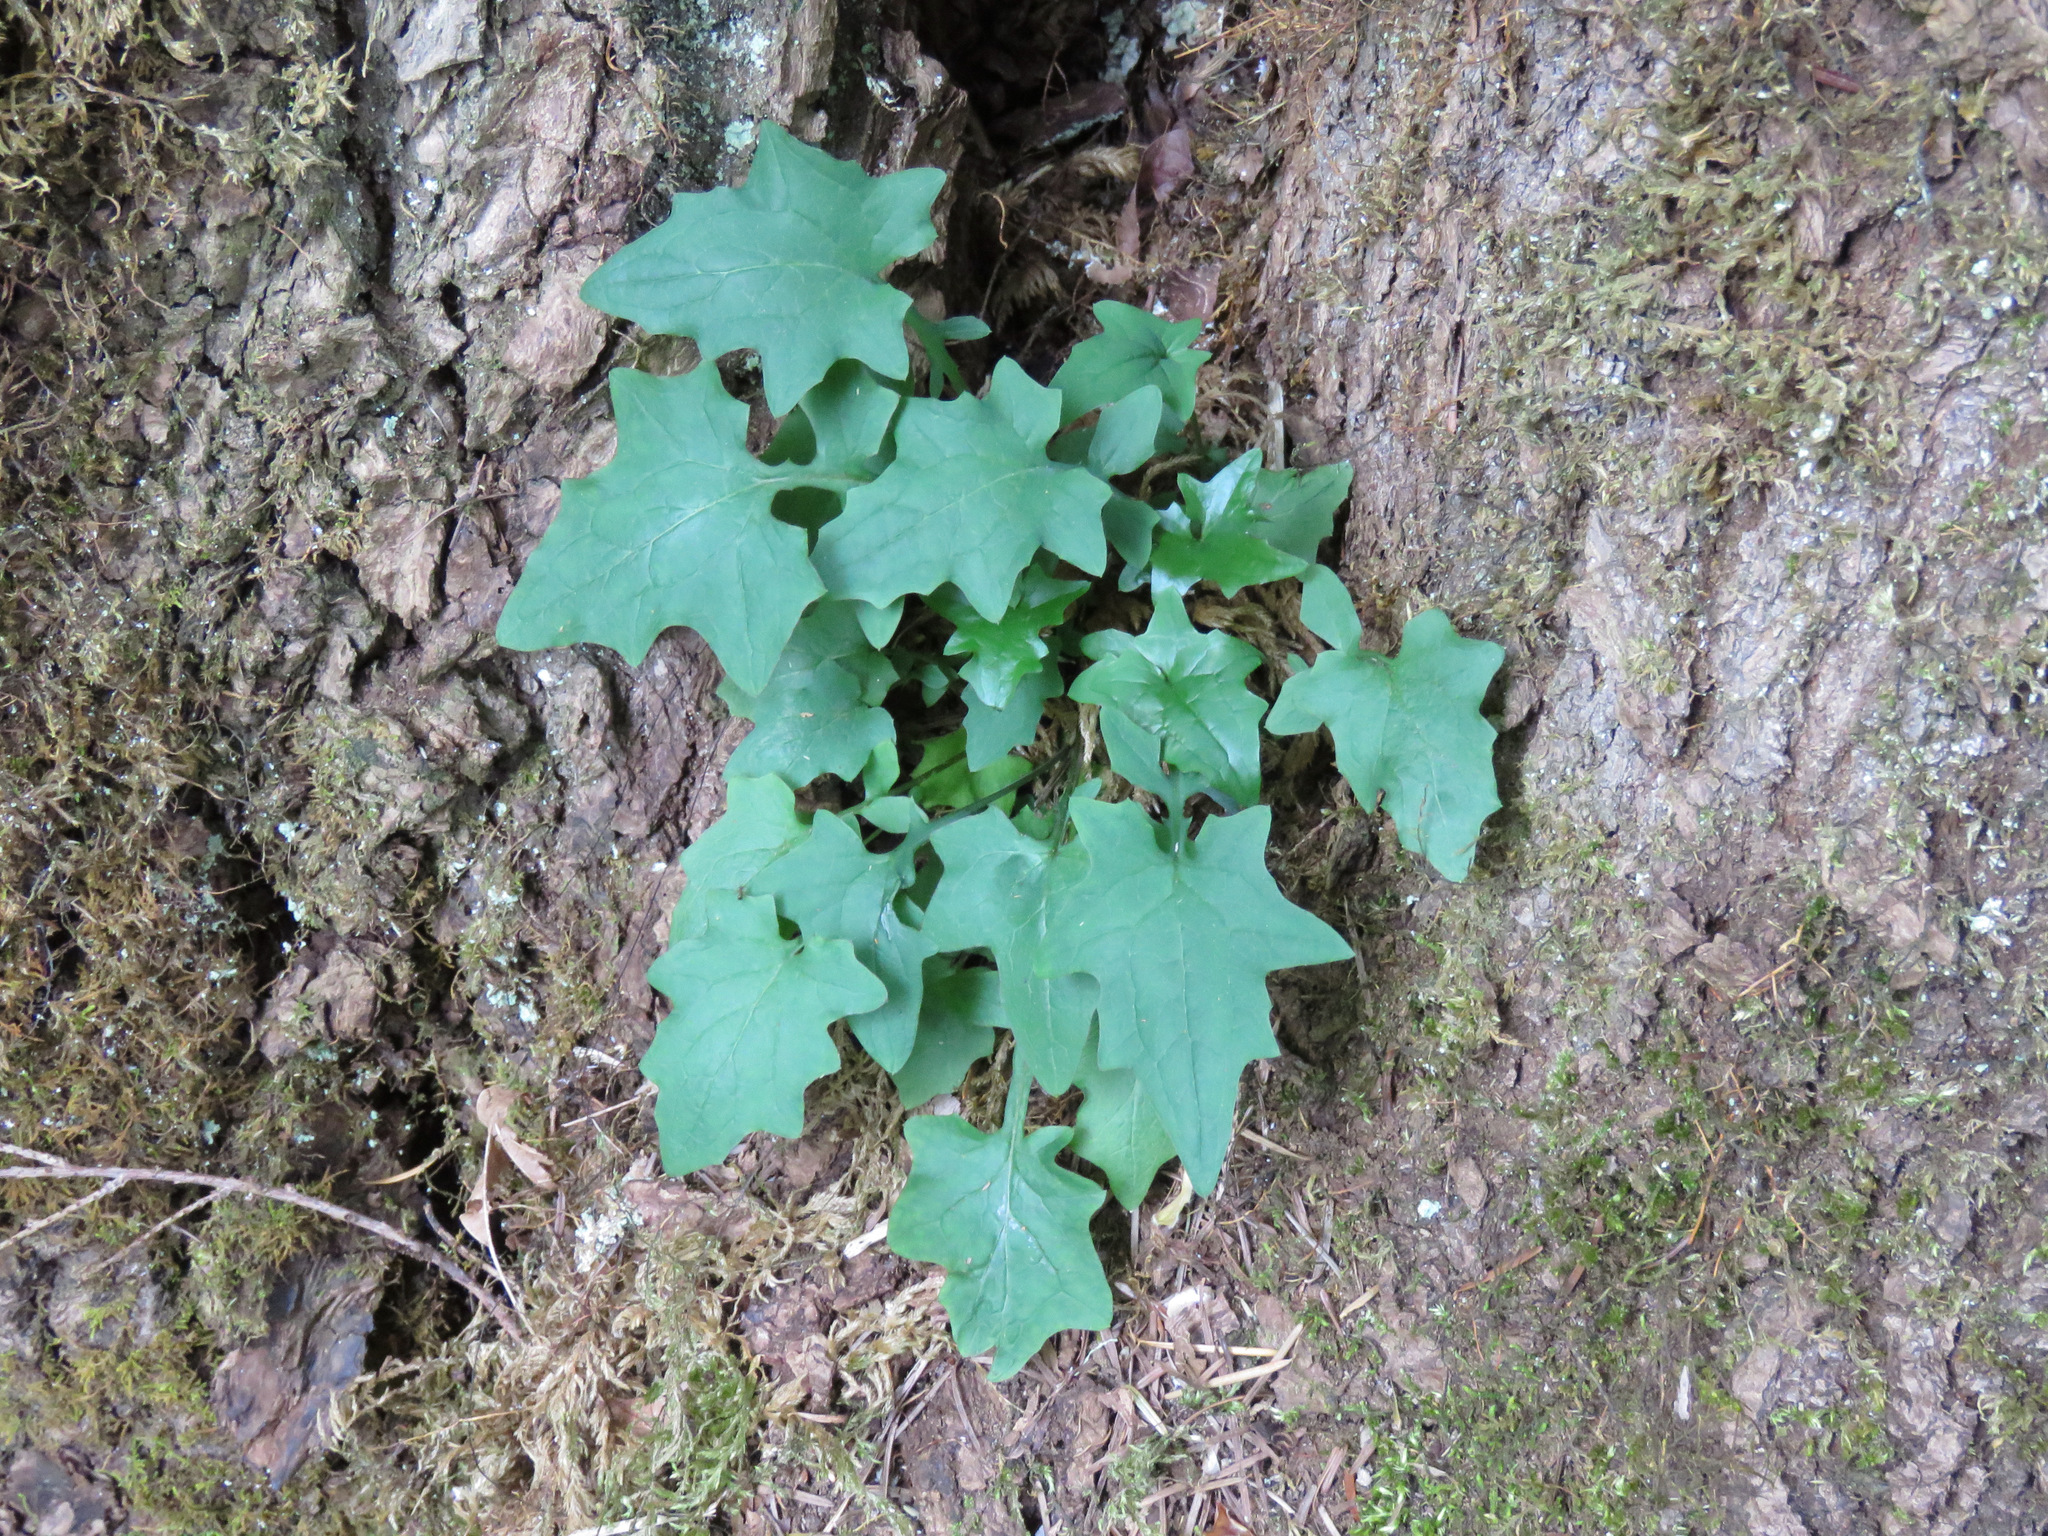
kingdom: Plantae
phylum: Tracheophyta
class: Magnoliopsida
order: Asterales
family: Asteraceae
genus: Mycelis
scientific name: Mycelis muralis
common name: Wall lettuce
